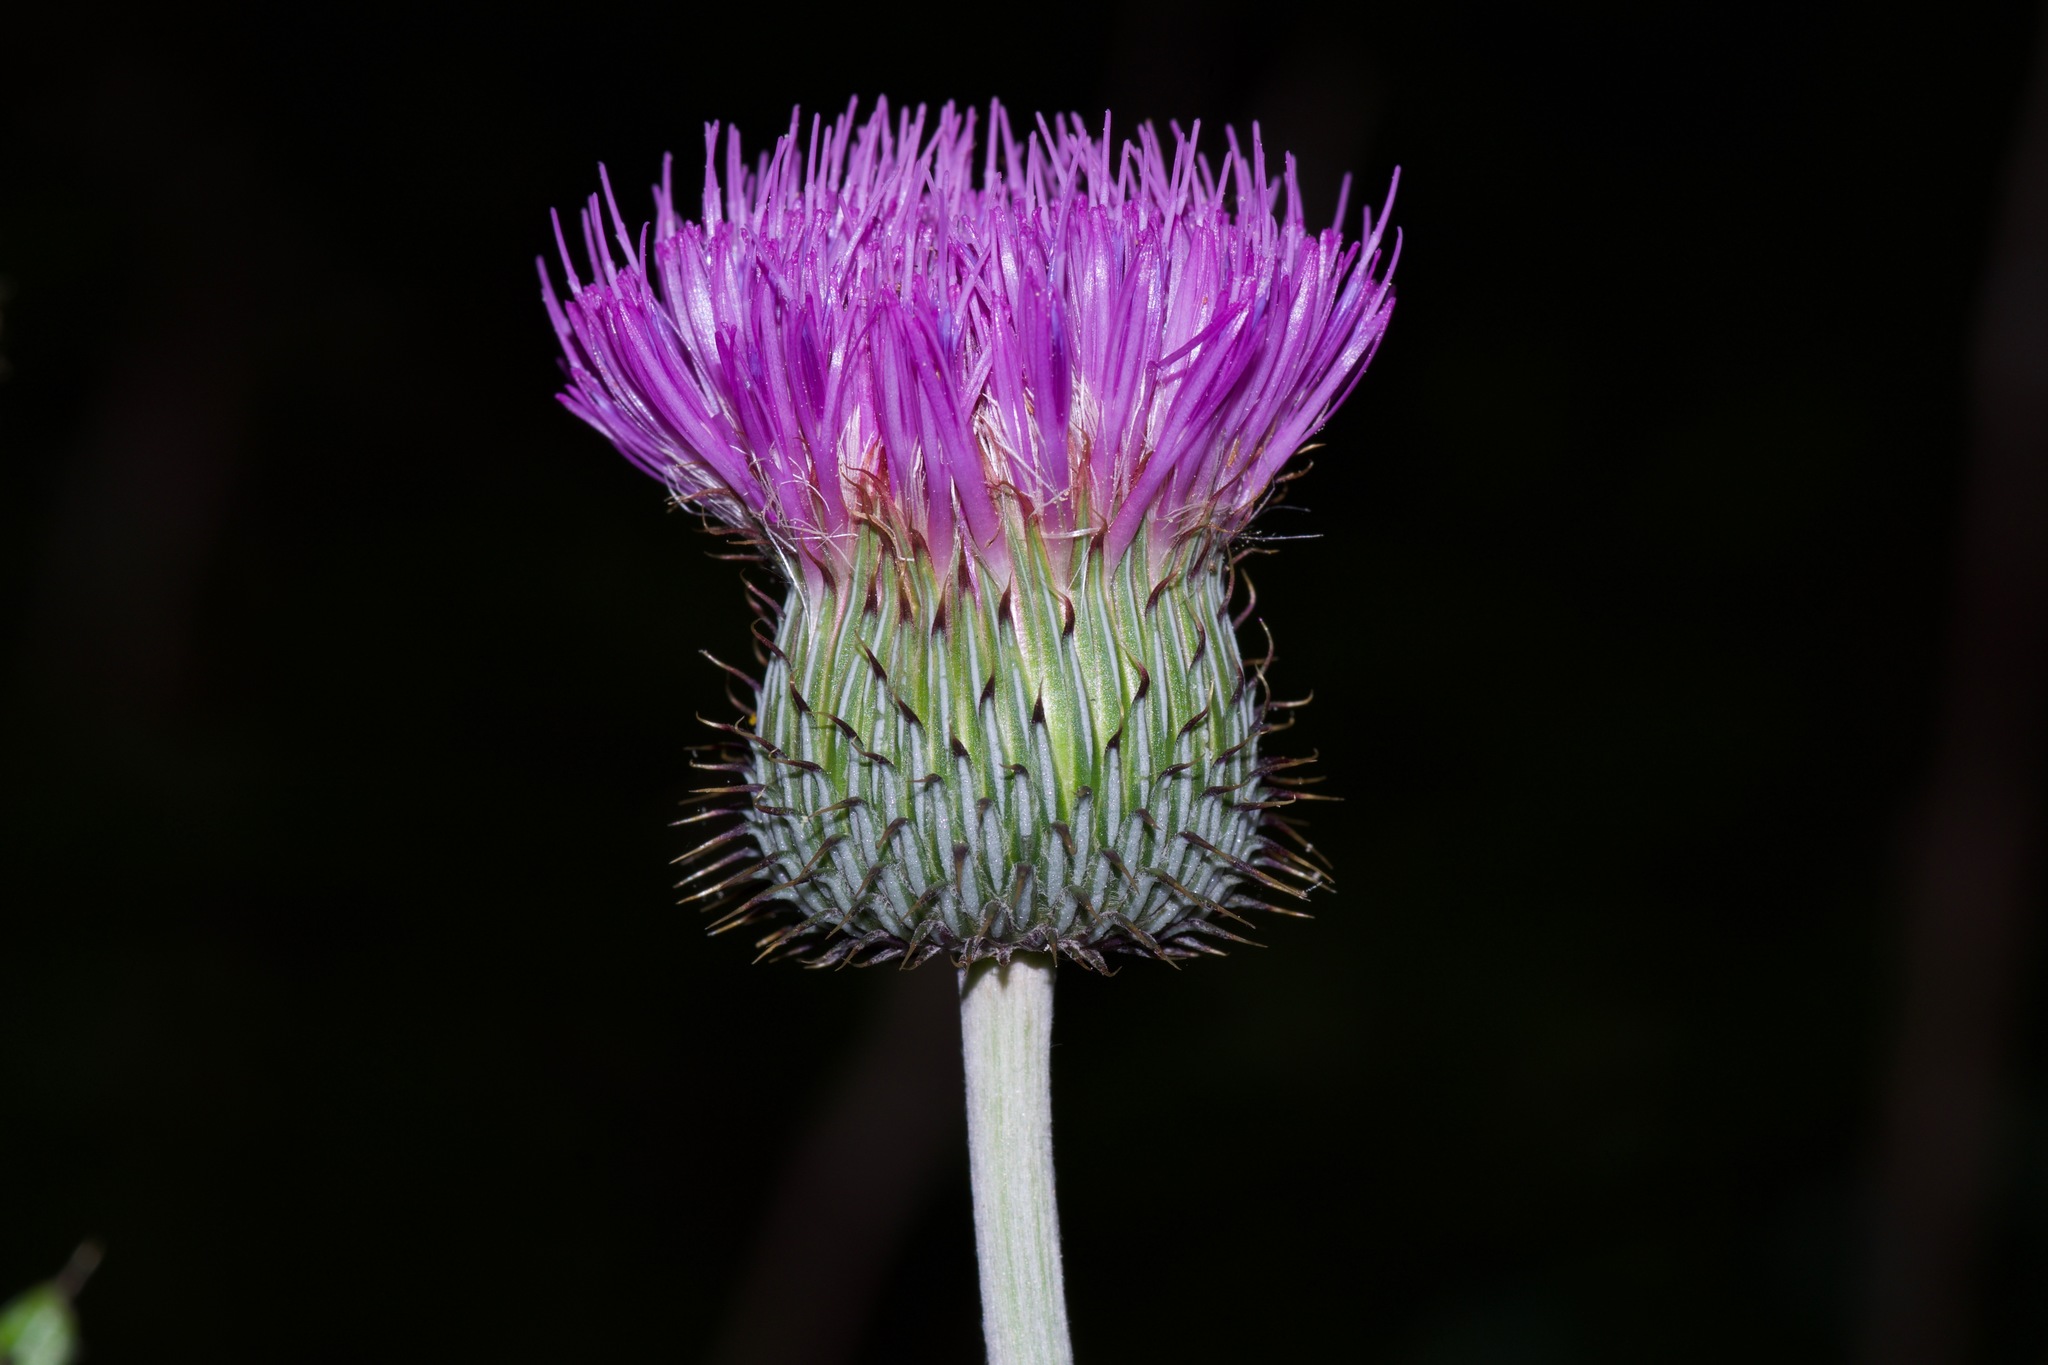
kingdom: Plantae
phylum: Tracheophyta
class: Magnoliopsida
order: Asterales
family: Asteraceae
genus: Cirsium
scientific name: Cirsium texanum
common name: Texas purple thistle
